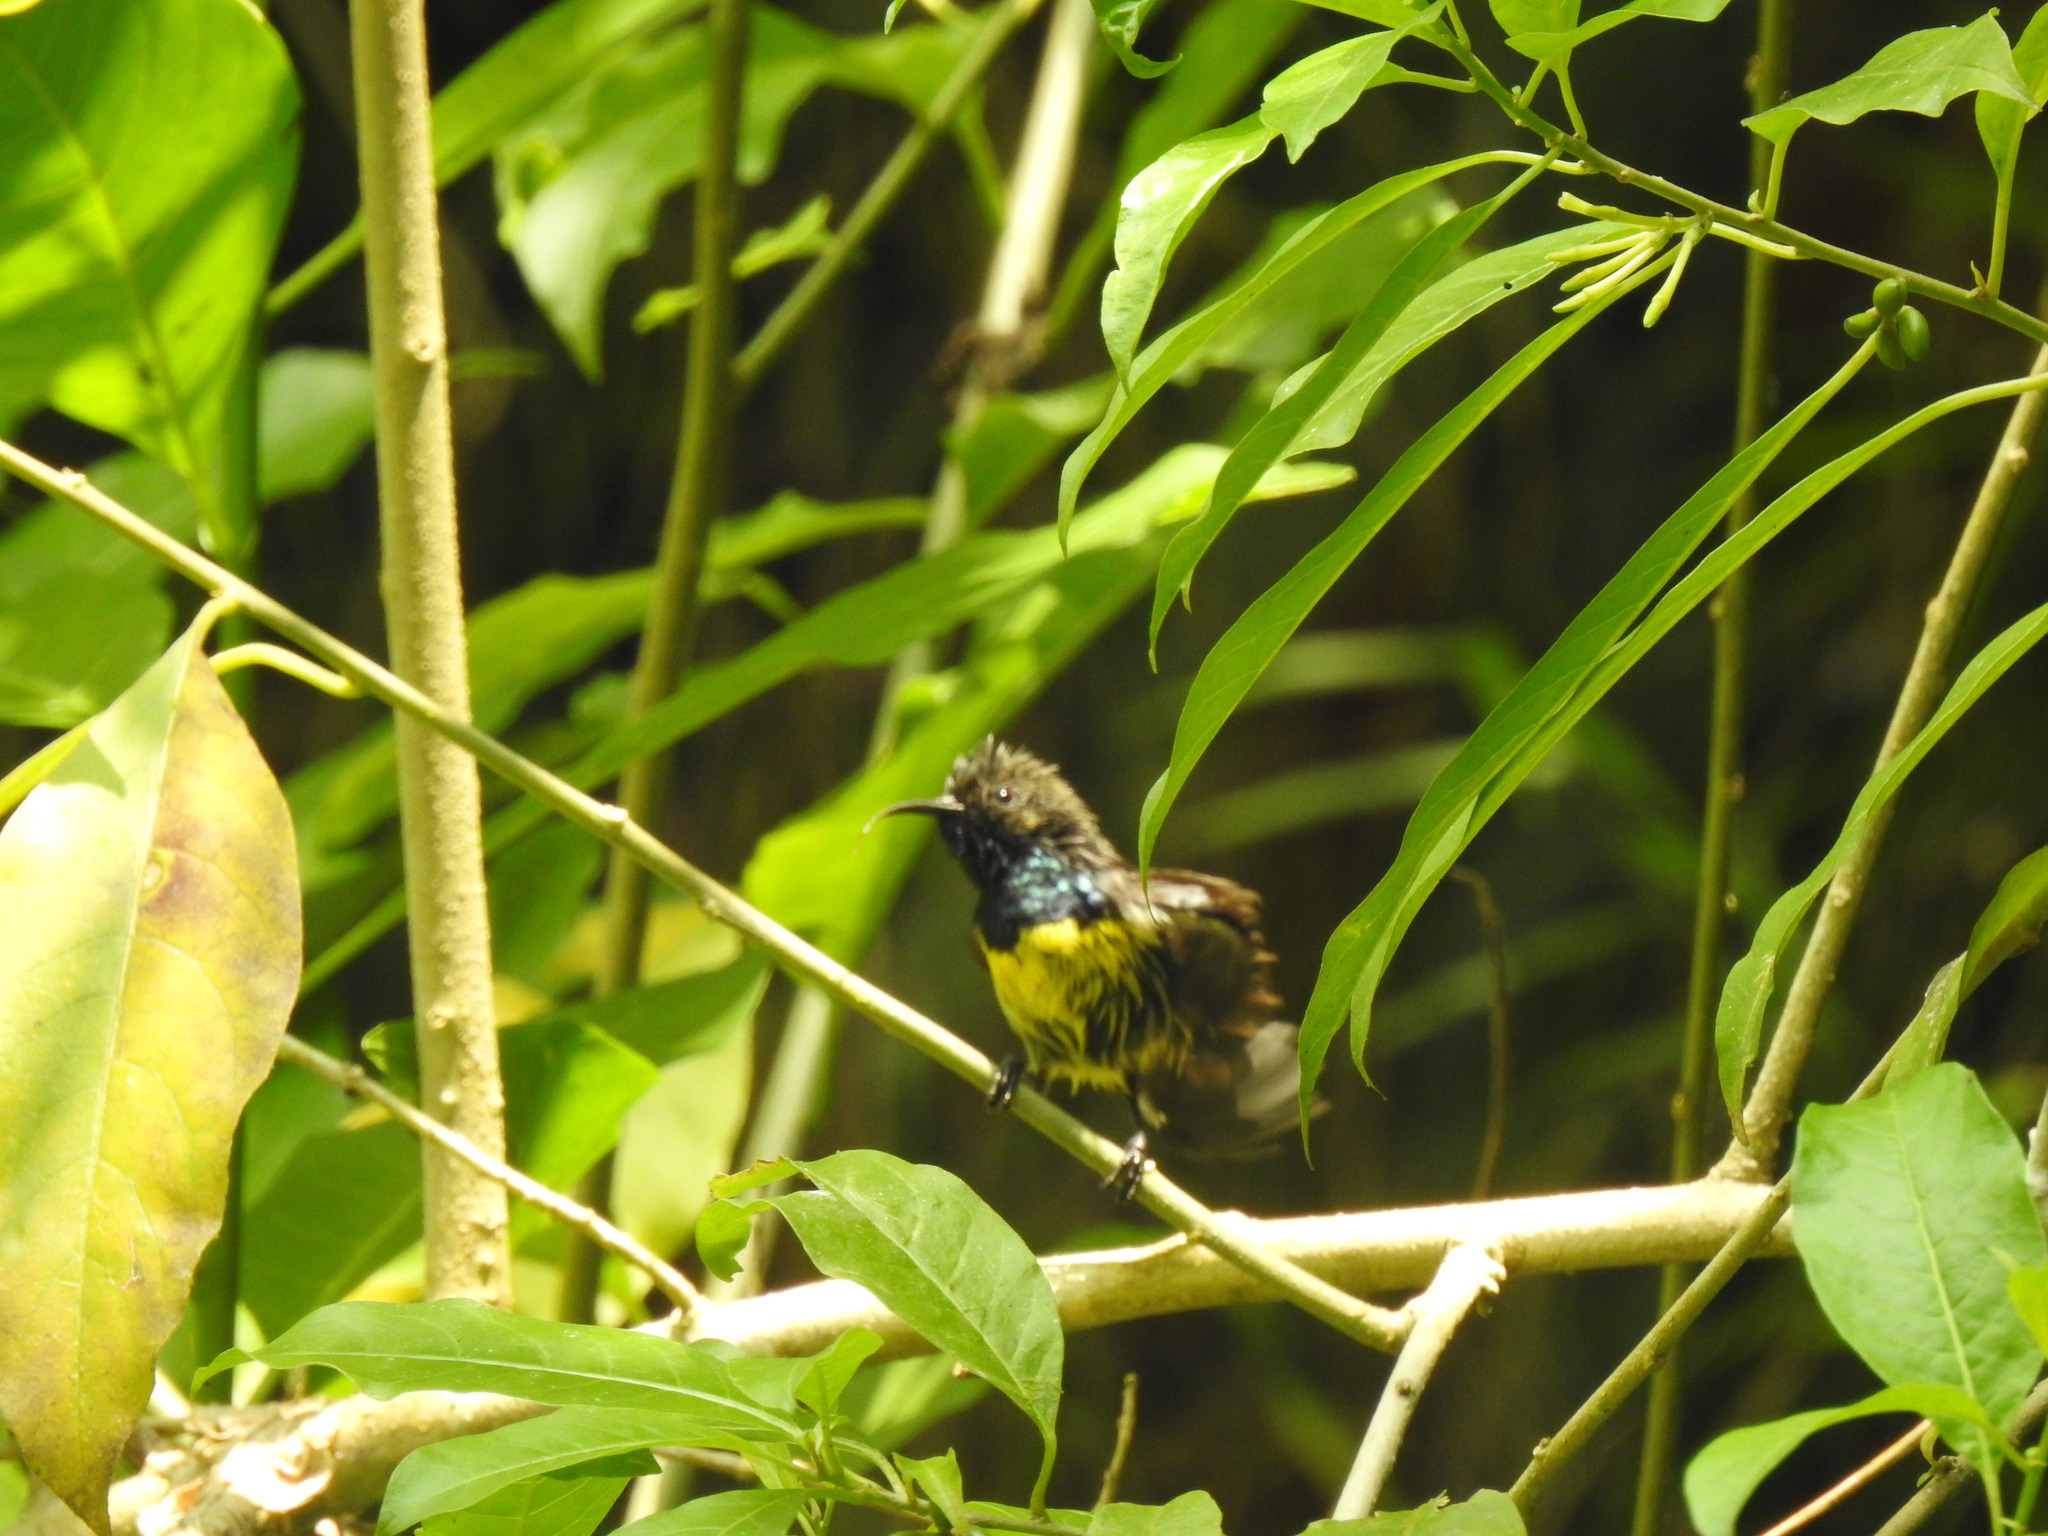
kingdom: Animalia
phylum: Chordata
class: Aves
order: Passeriformes
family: Nectariniidae
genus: Anabathmis
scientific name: Anabathmis newtonii
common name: Newton's sunbird
